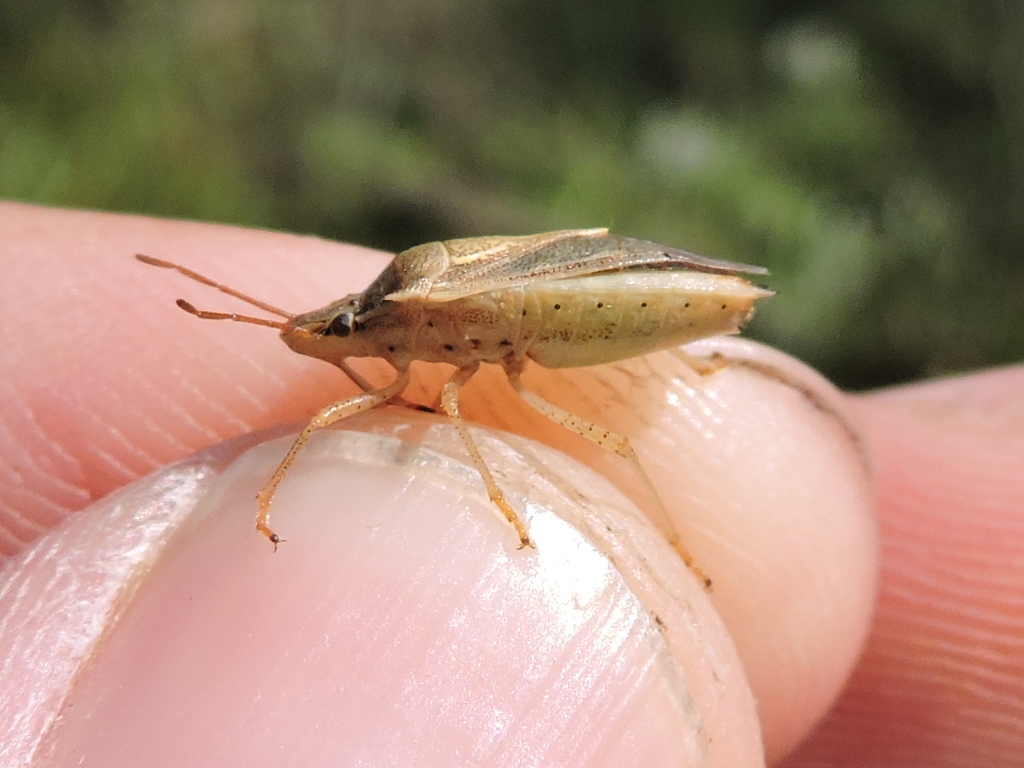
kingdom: Animalia
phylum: Arthropoda
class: Insecta
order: Hemiptera
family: Pentatomidae
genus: Oebalus
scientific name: Oebalus pugnax
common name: Rice stink bug
